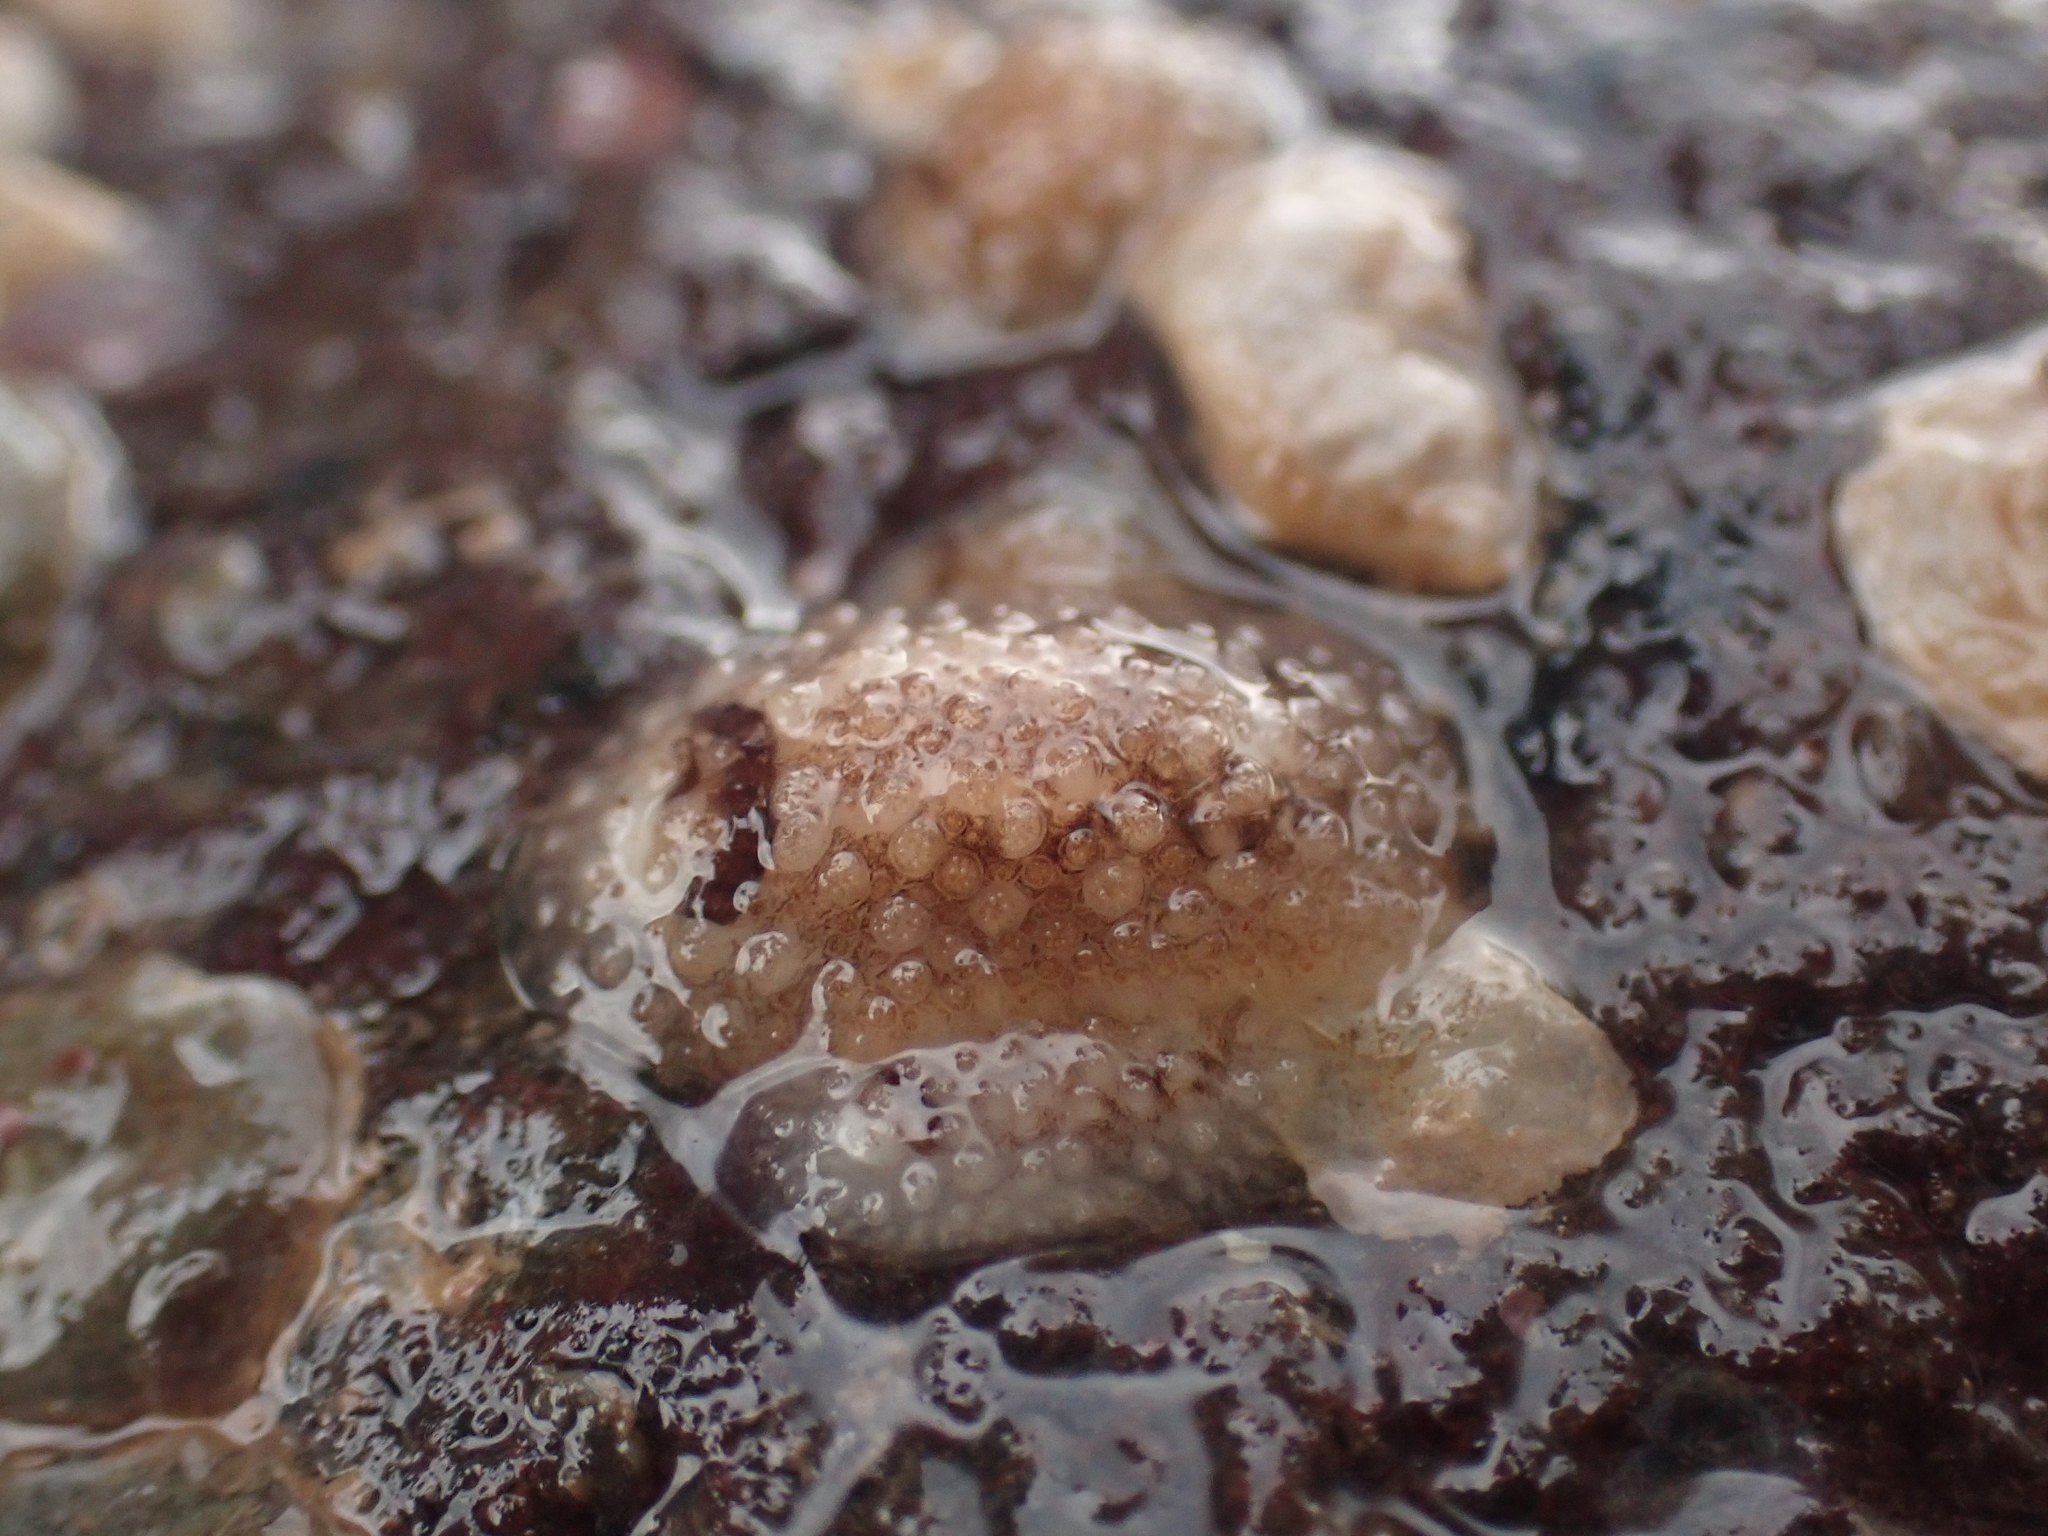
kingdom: Animalia
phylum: Mollusca
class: Gastropoda
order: Nudibranchia
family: Onchidorididae
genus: Onchidoris
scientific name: Onchidoris bilamellata
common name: Barnacle-eating onchidoris
